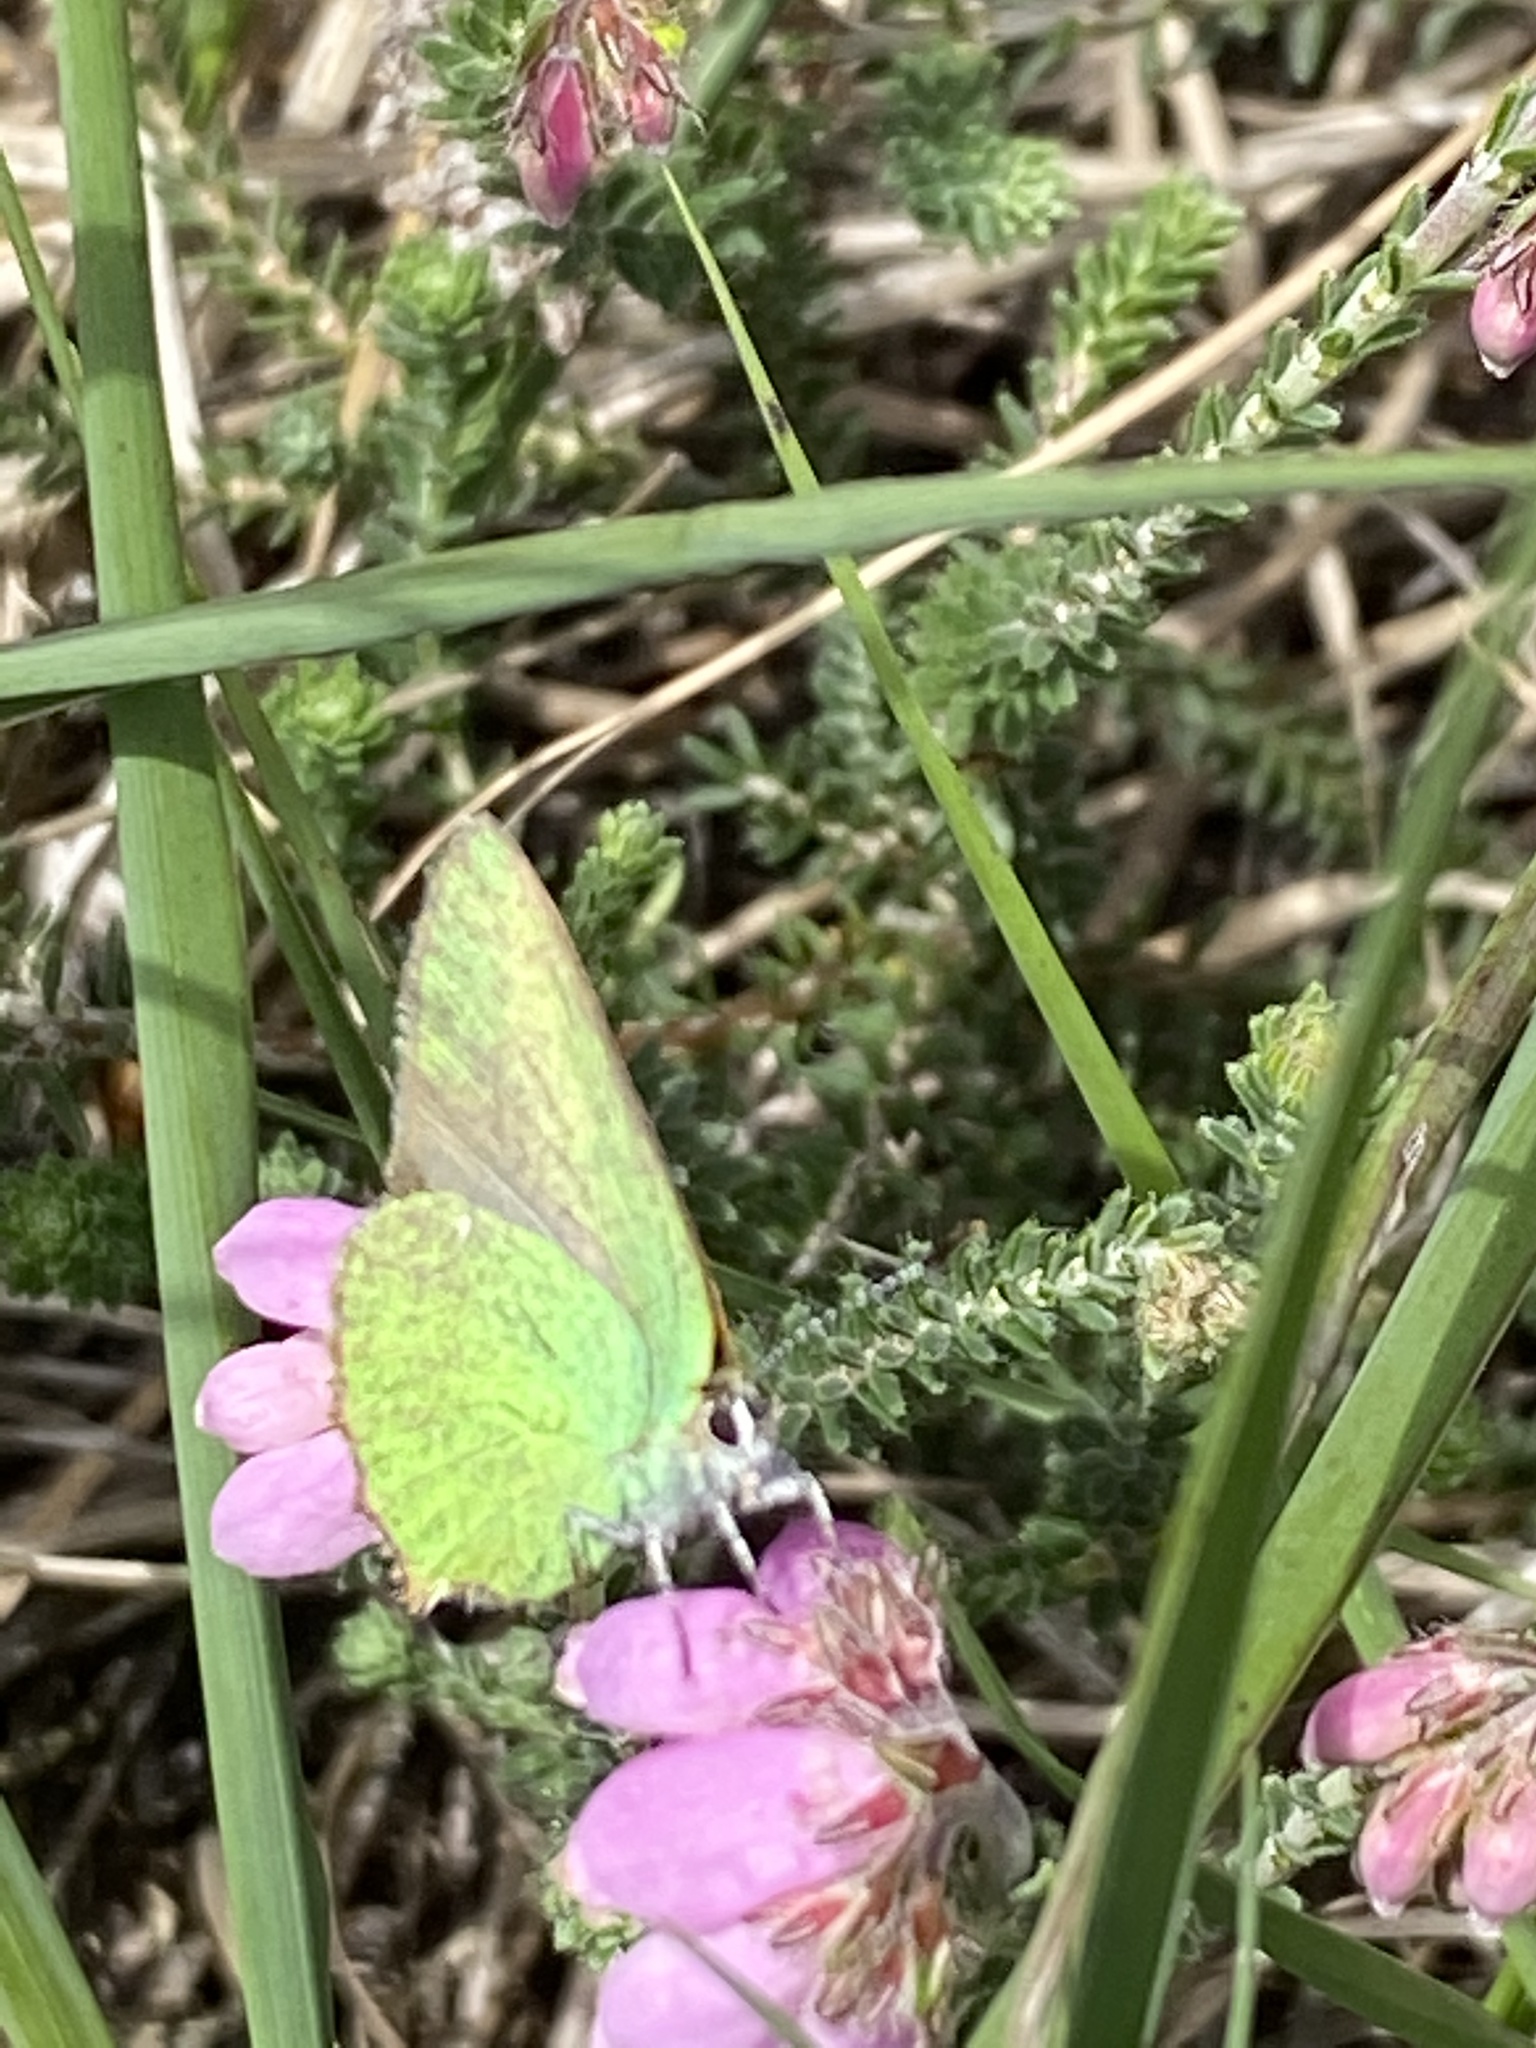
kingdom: Animalia
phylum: Arthropoda
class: Insecta
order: Lepidoptera
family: Lycaenidae
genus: Callophrys
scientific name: Callophrys rubi
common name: Green hairstreak
